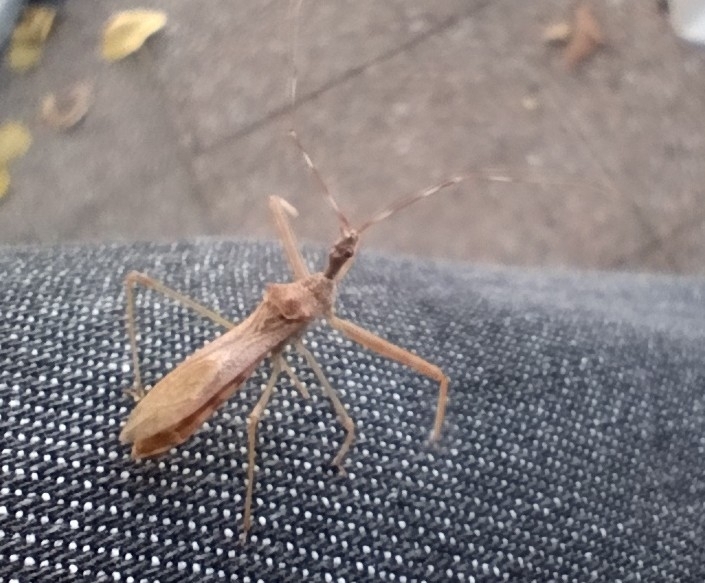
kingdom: Animalia
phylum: Arthropoda
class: Insecta
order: Hemiptera
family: Reduviidae
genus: Nagusta
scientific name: Nagusta goedelii
